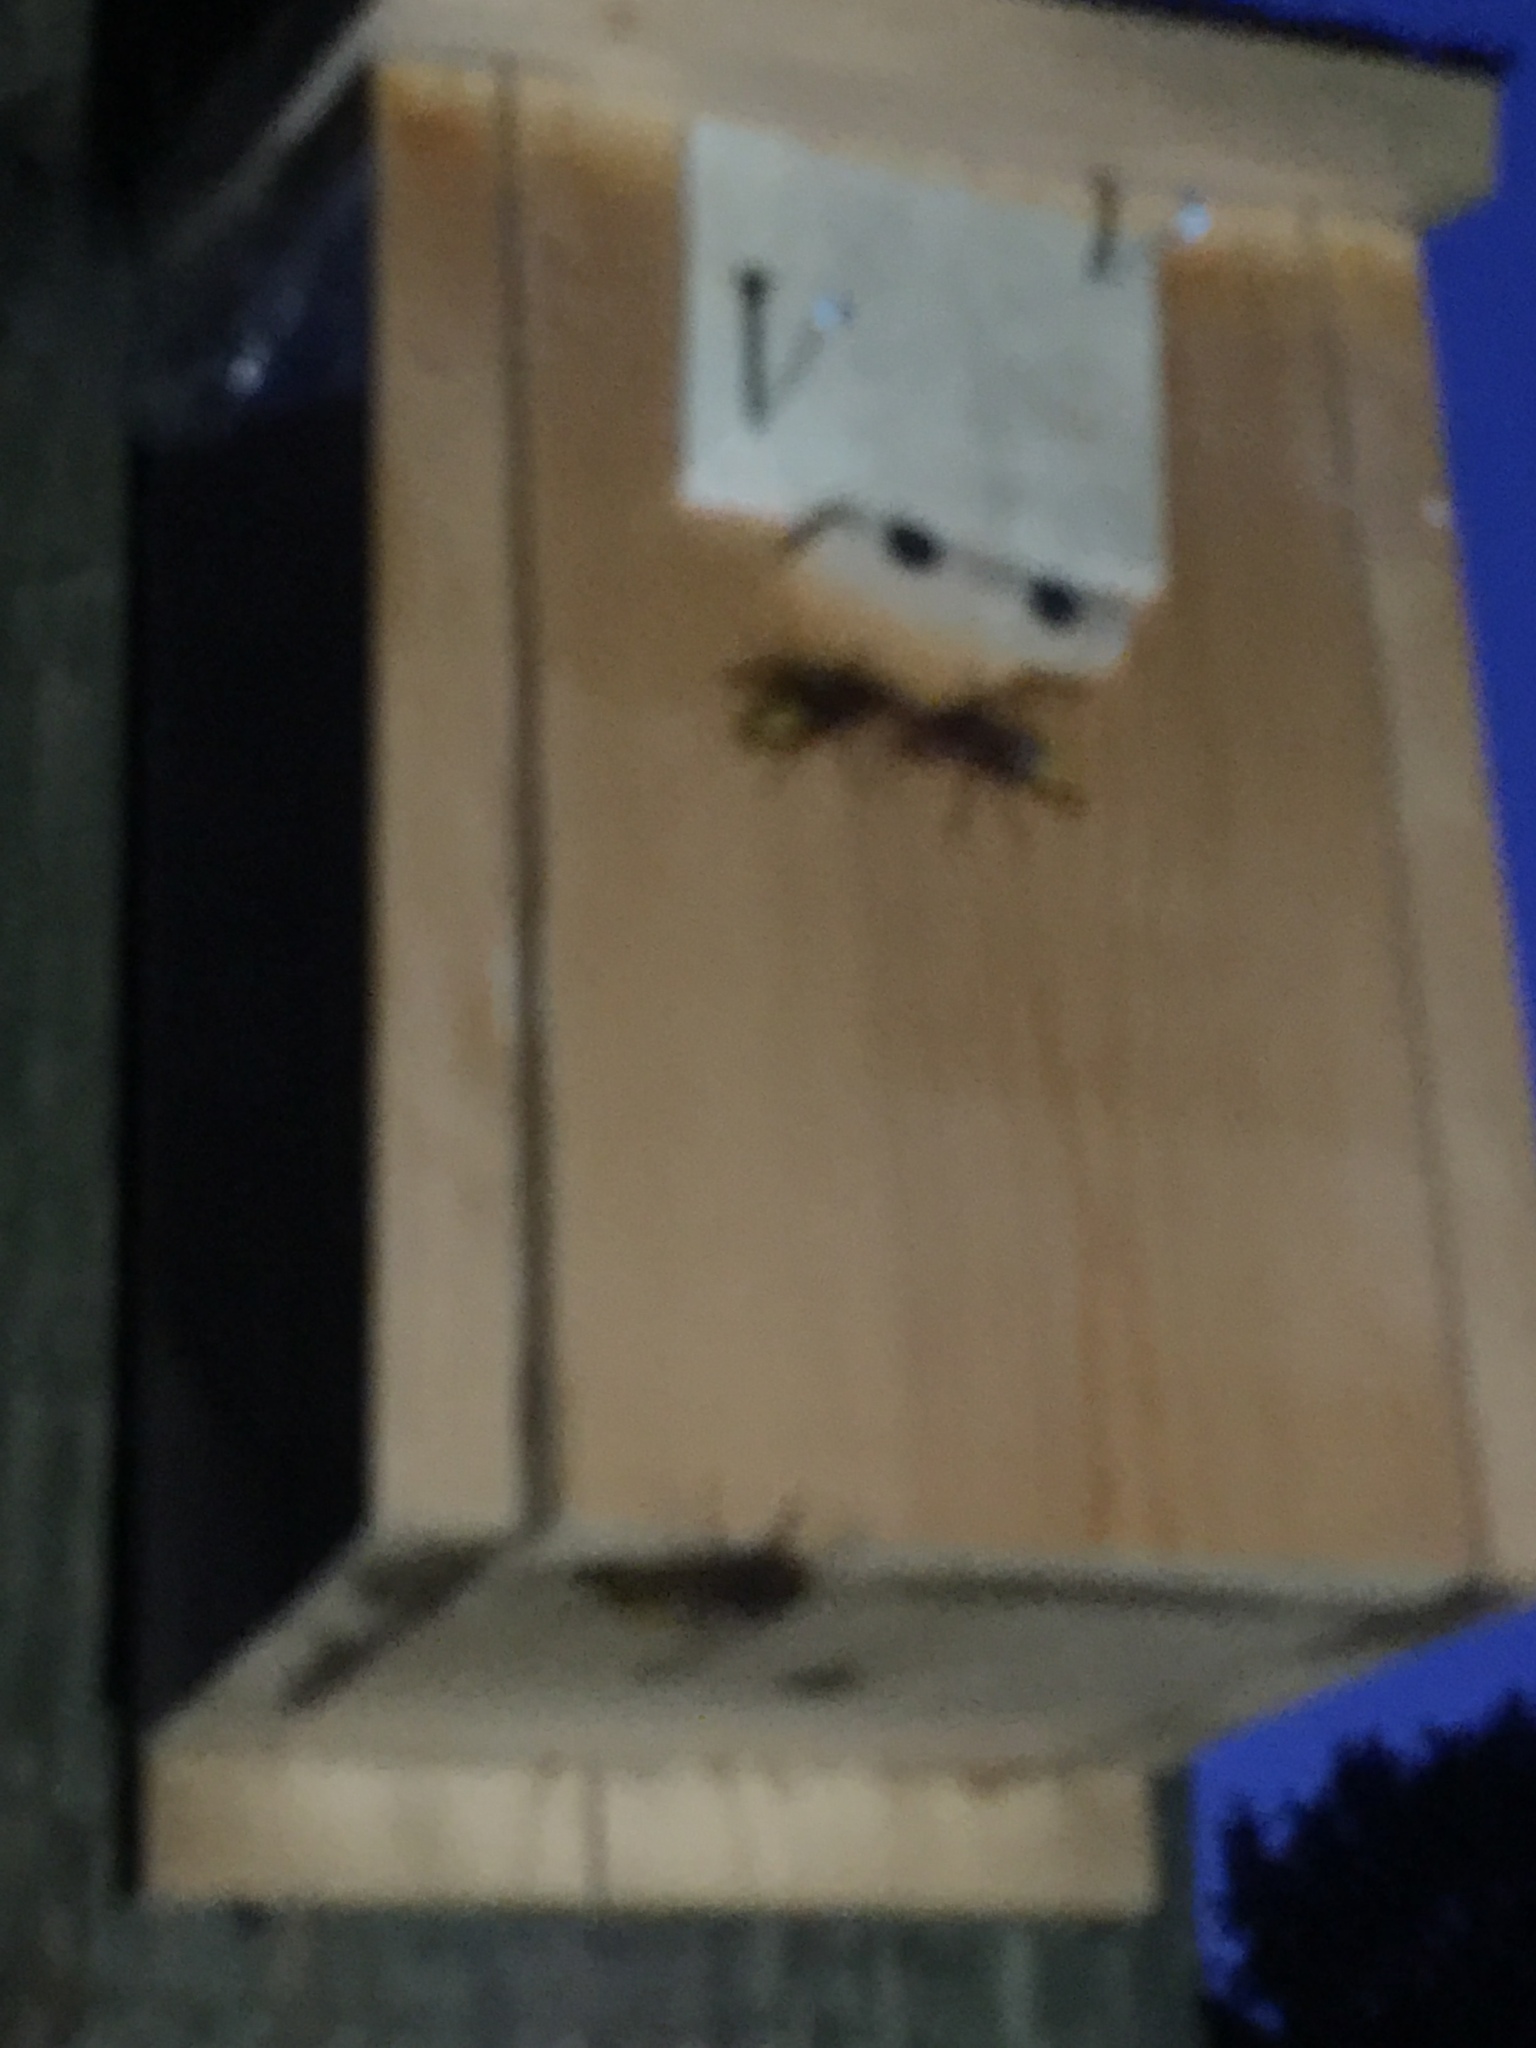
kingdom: Animalia
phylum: Arthropoda
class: Insecta
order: Hymenoptera
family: Vespidae
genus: Vespa
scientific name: Vespa crabro
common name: Hornet
